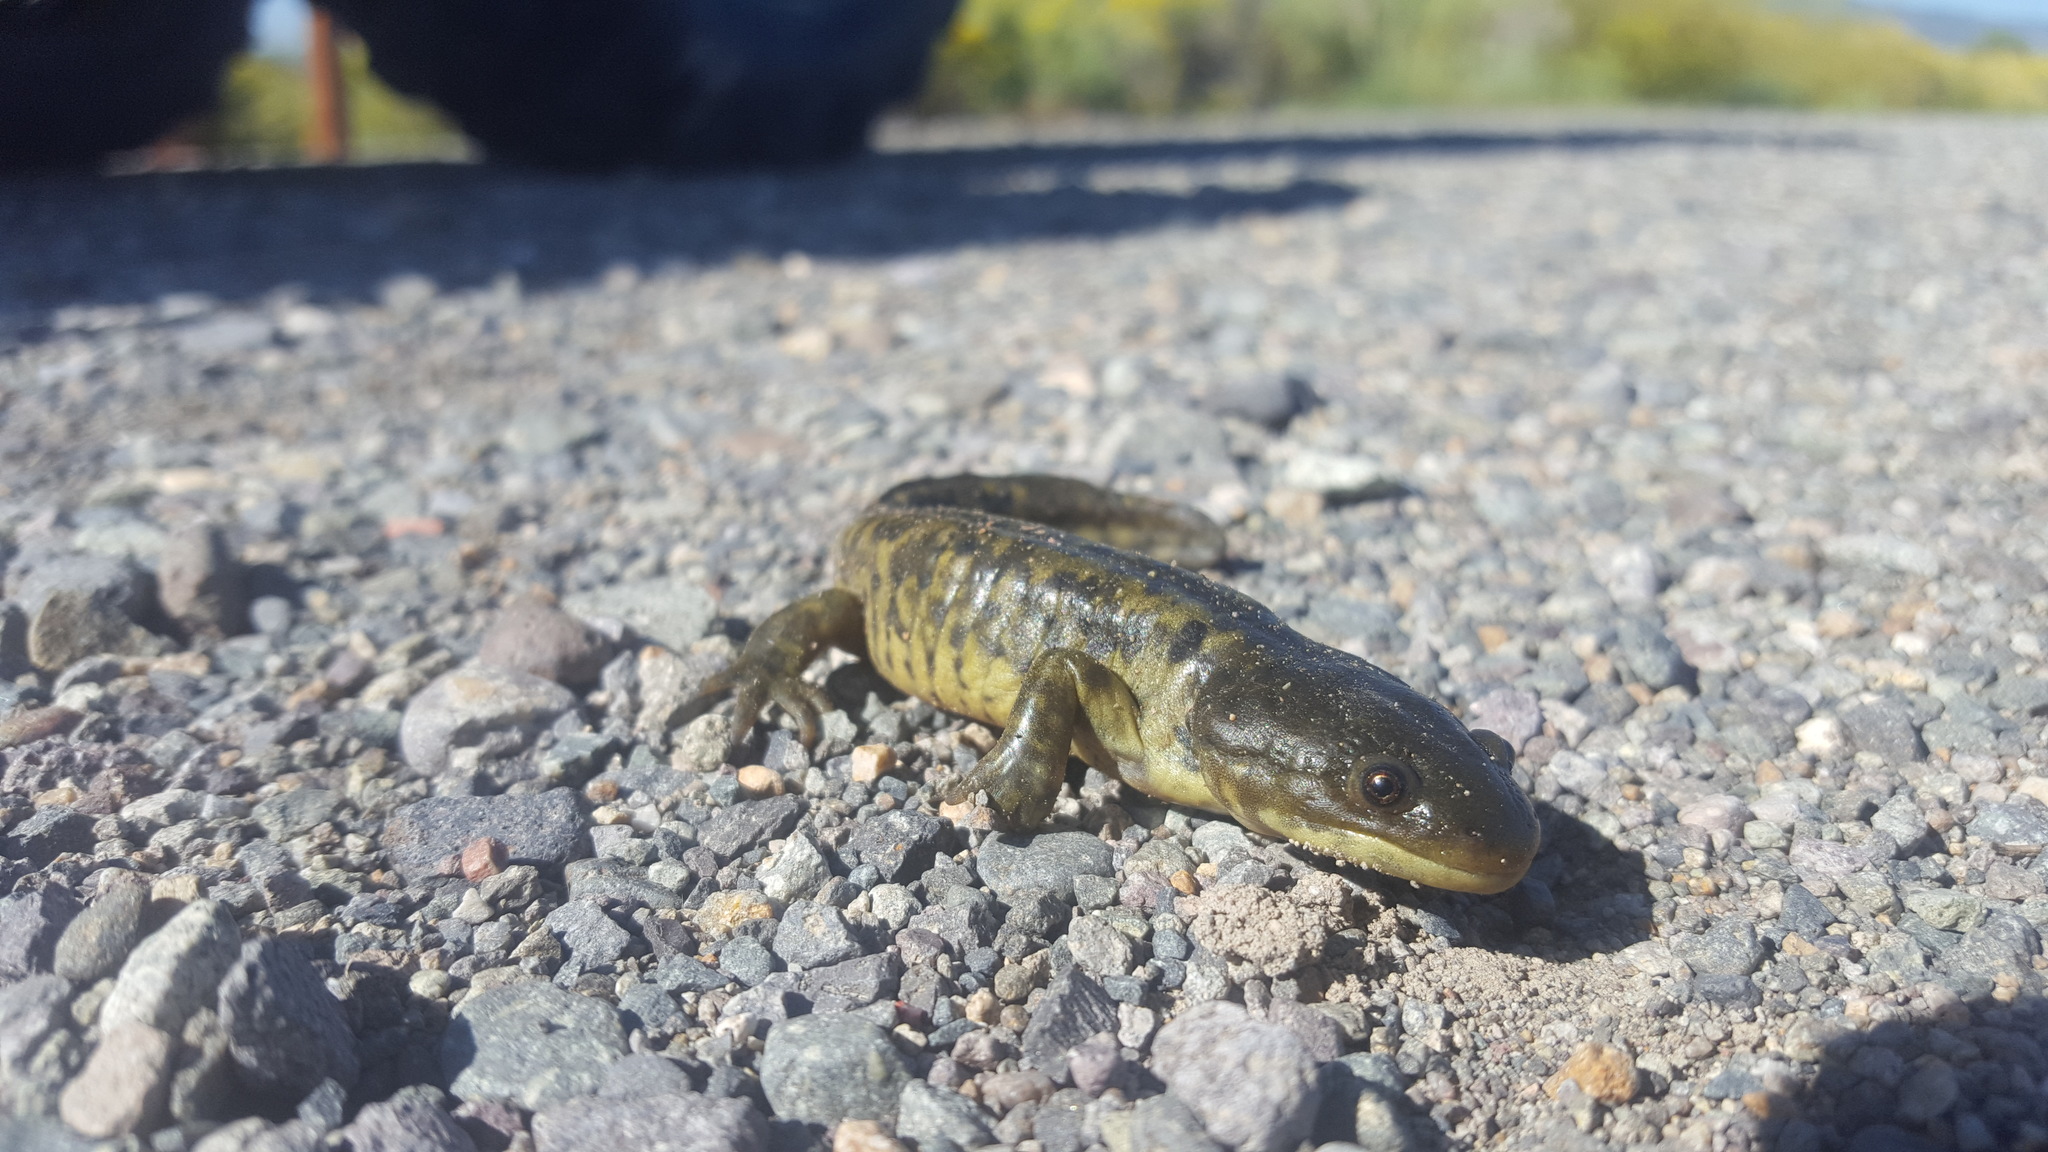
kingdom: Animalia
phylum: Chordata
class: Amphibia
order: Caudata
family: Ambystomatidae
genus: Ambystoma
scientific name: Ambystoma mavortium
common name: Western tiger salamander
